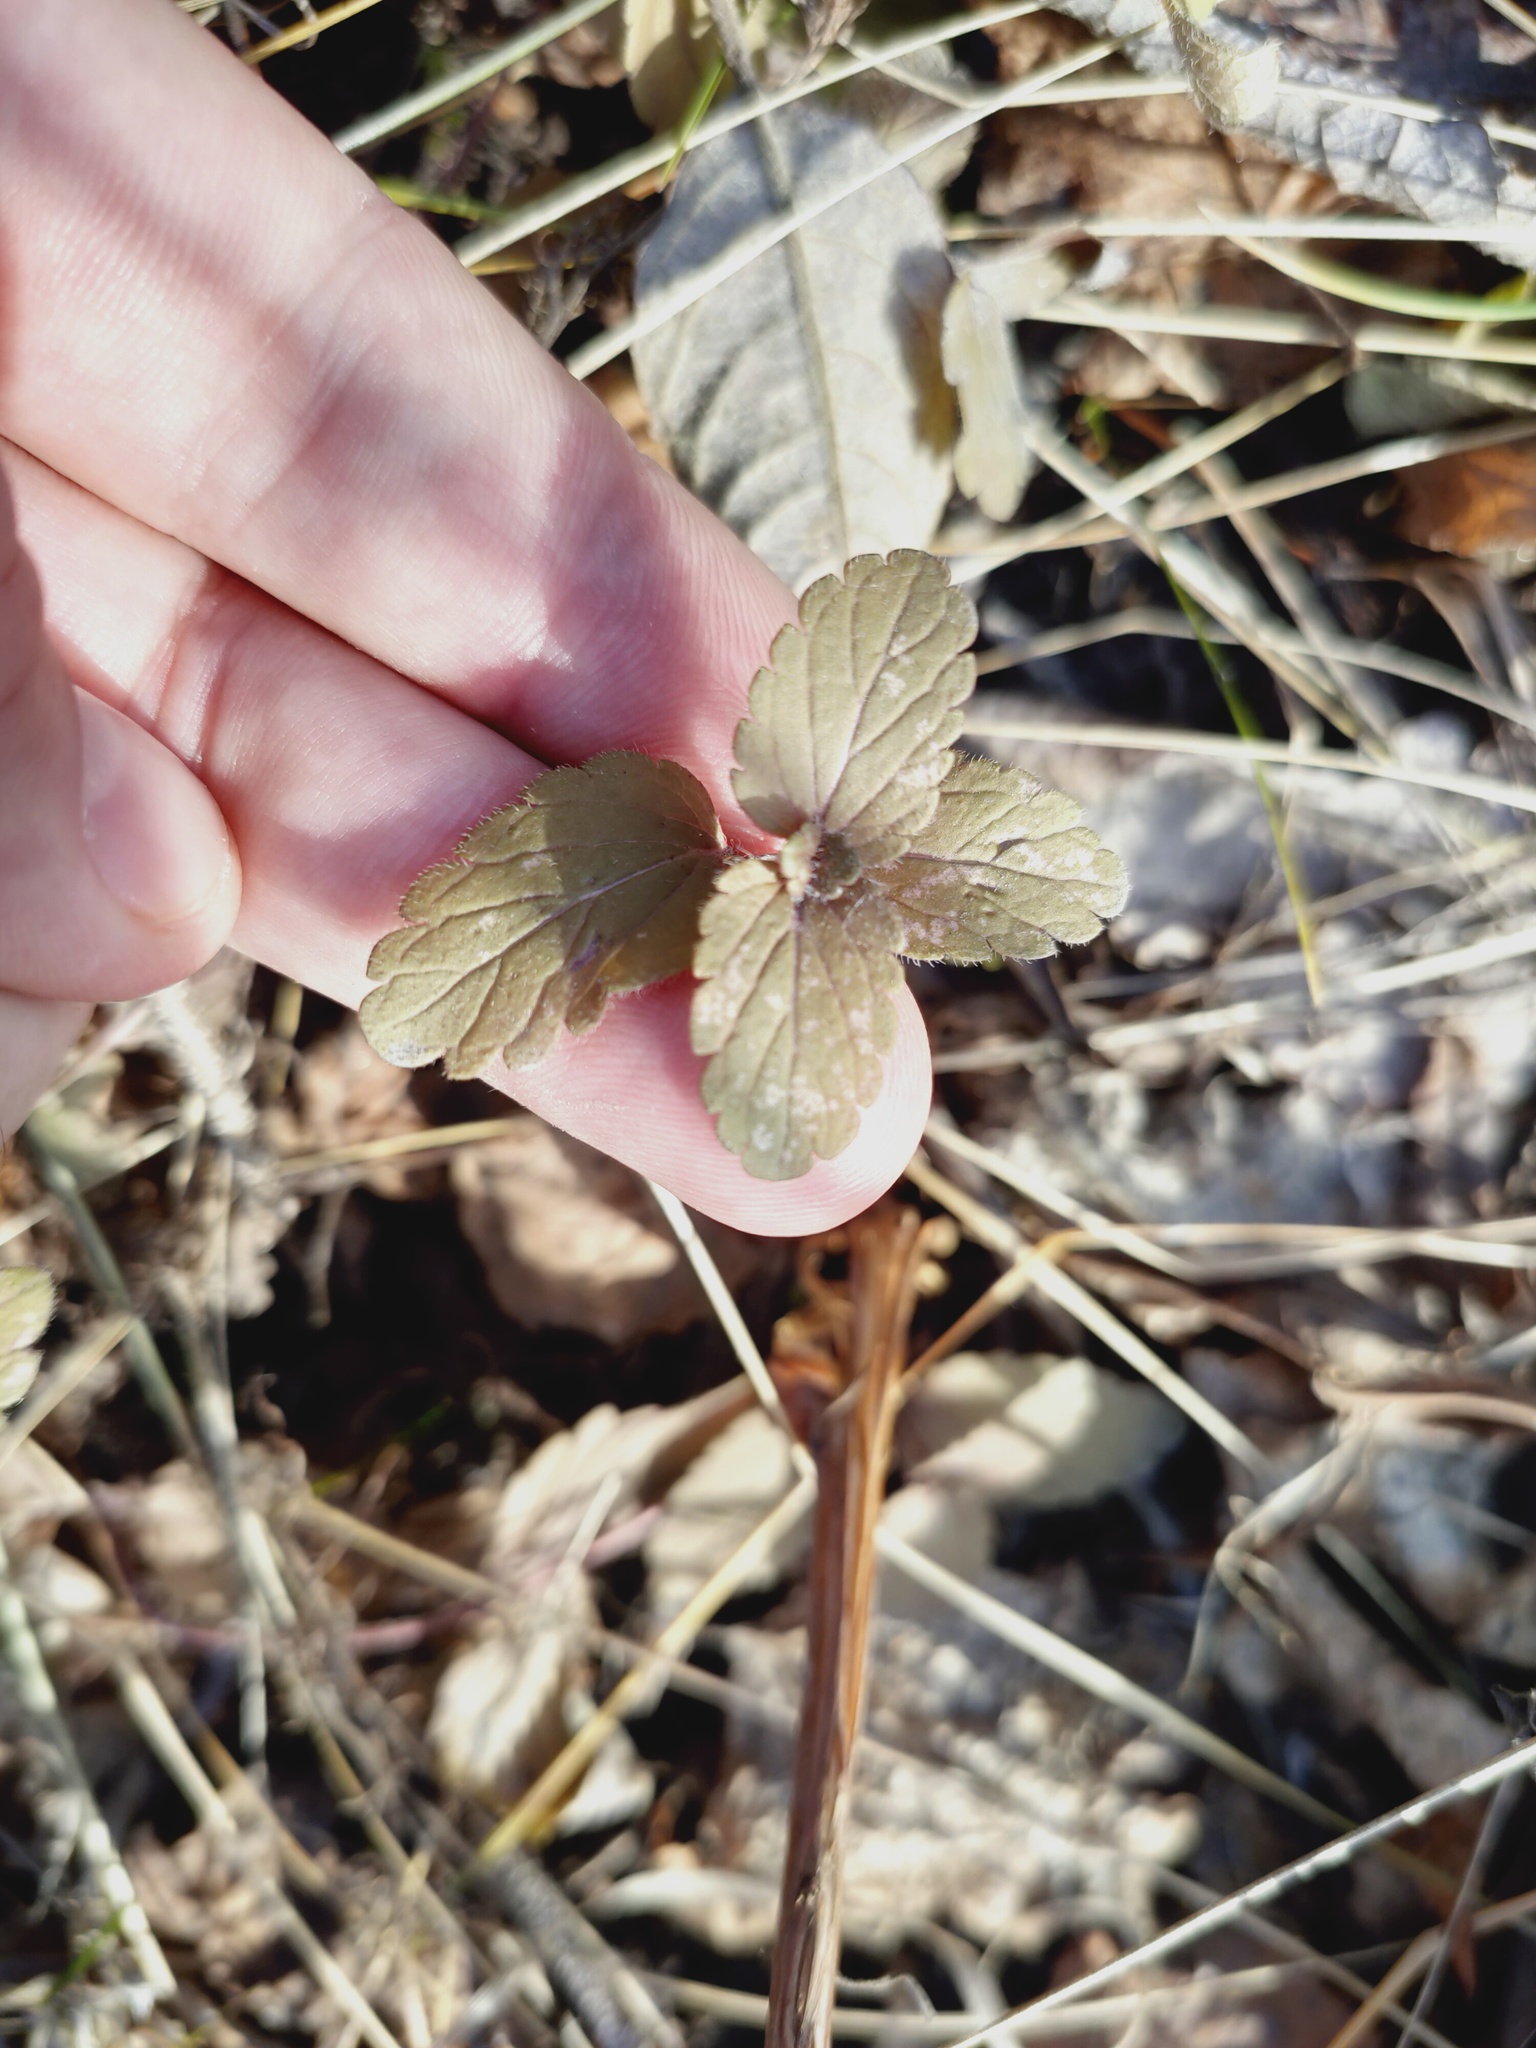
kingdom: Plantae
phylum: Tracheophyta
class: Magnoliopsida
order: Lamiales
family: Plantaginaceae
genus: Veronica
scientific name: Veronica chamaedrys
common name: Germander speedwell
